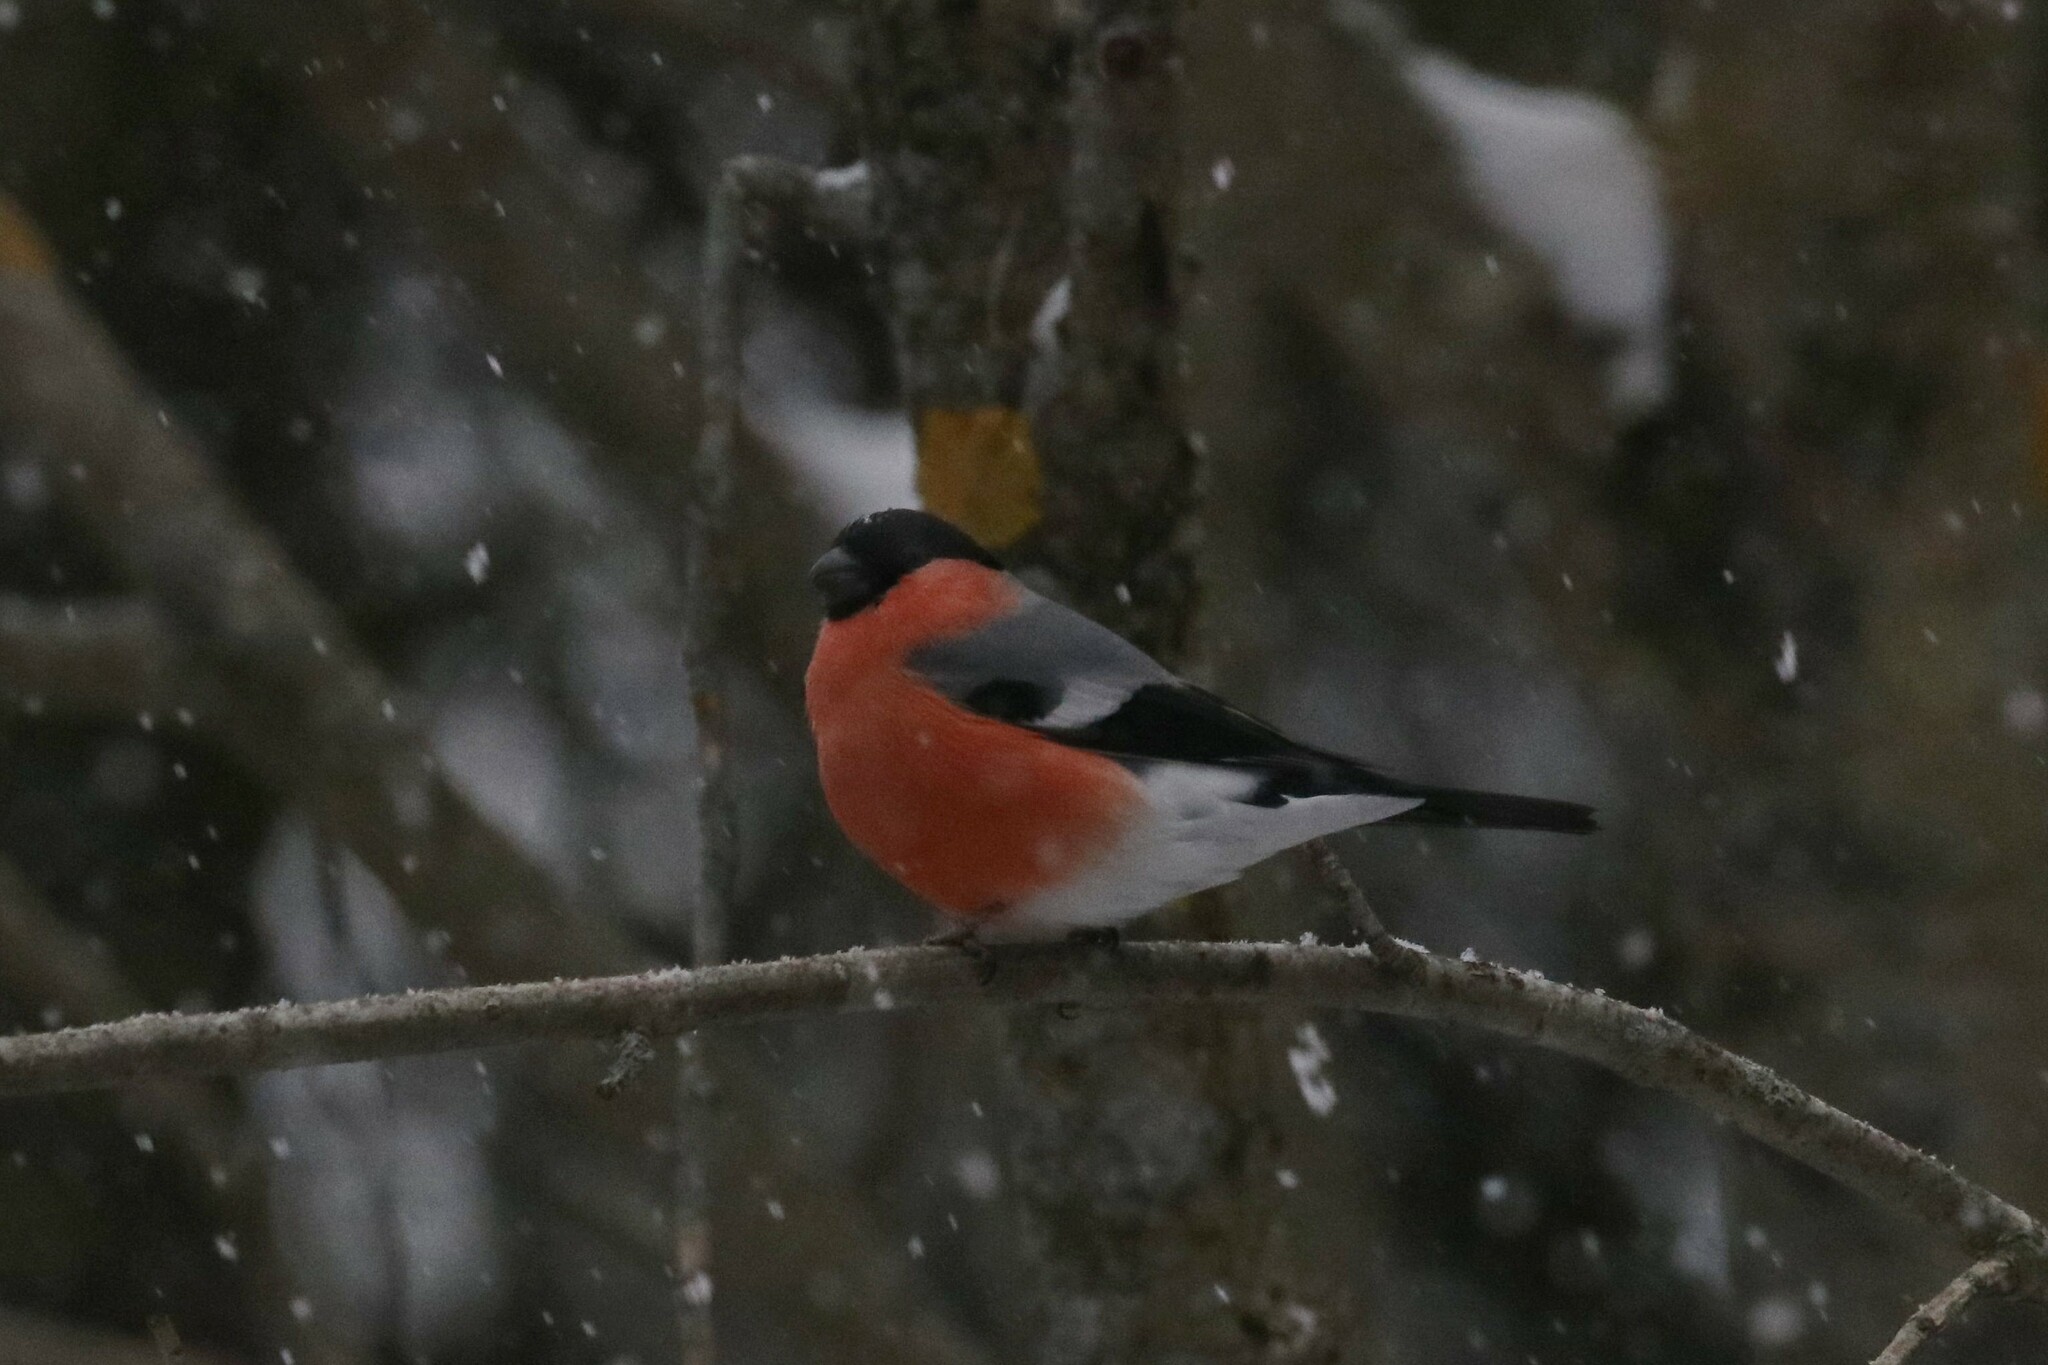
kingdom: Animalia
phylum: Chordata
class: Aves
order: Passeriformes
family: Fringillidae
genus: Pyrrhula
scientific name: Pyrrhula pyrrhula
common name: Eurasian bullfinch
